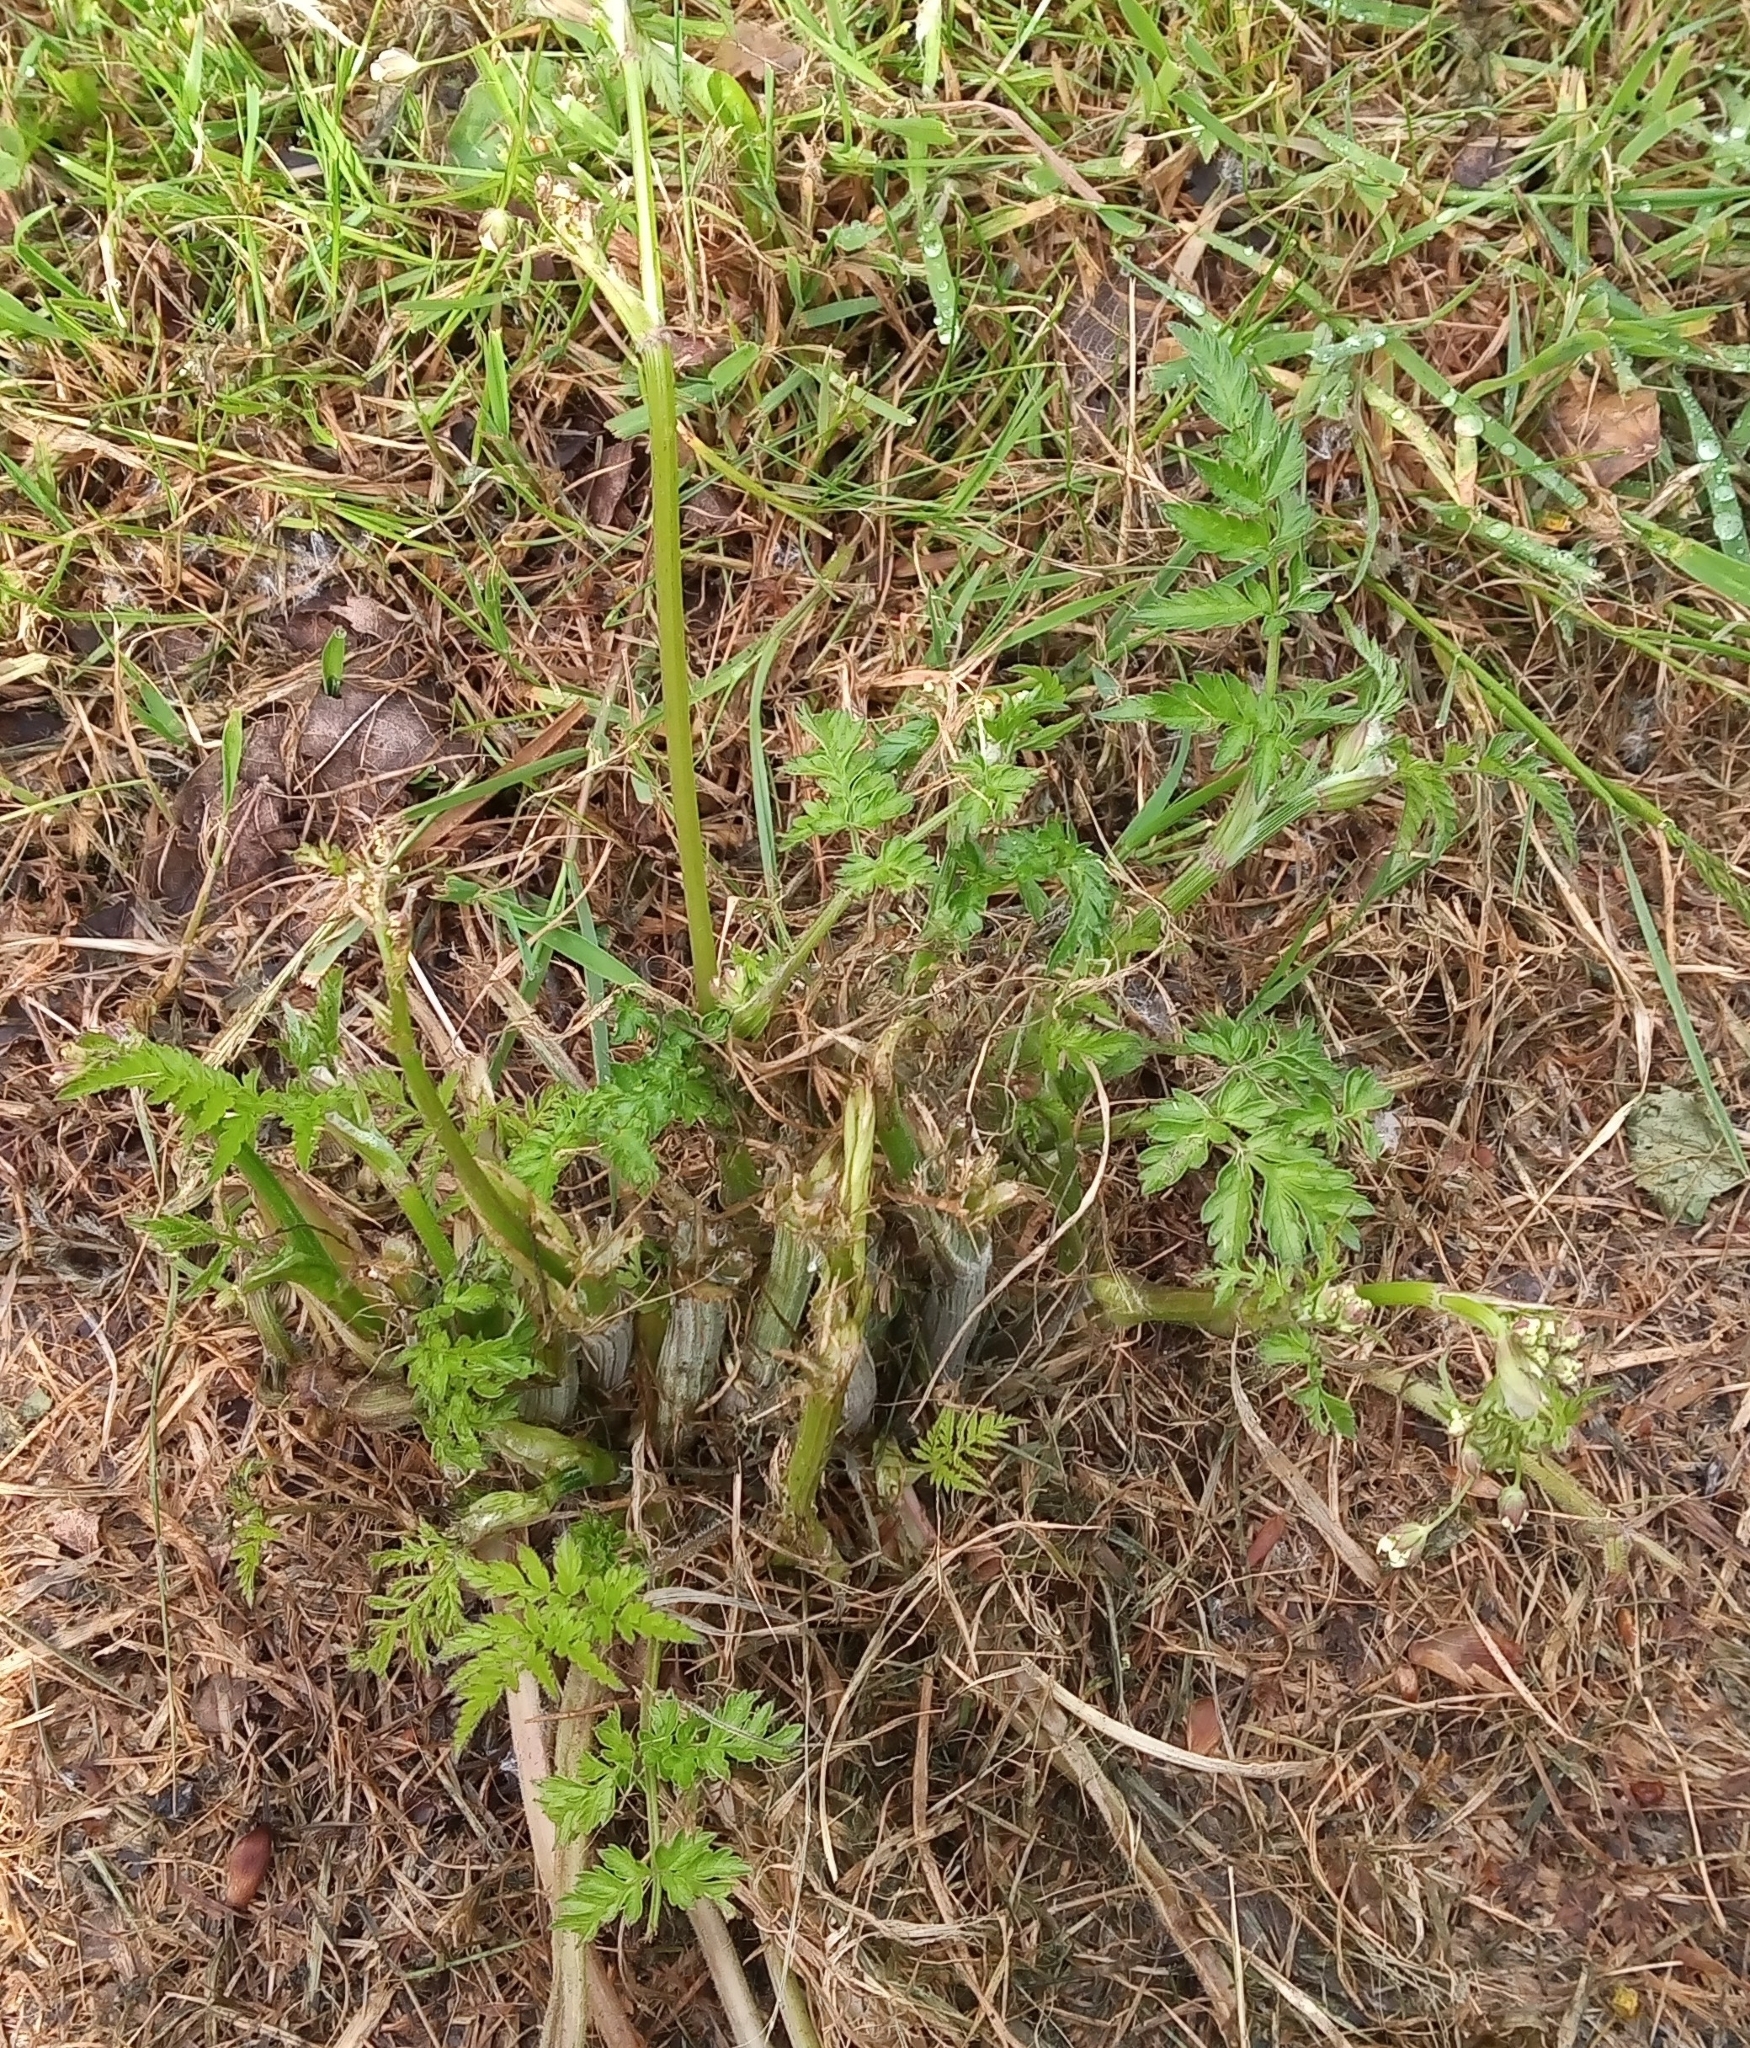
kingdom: Plantae
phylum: Tracheophyta
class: Magnoliopsida
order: Apiales
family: Apiaceae
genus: Anthriscus
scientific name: Anthriscus sylvestris
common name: Cow parsley
